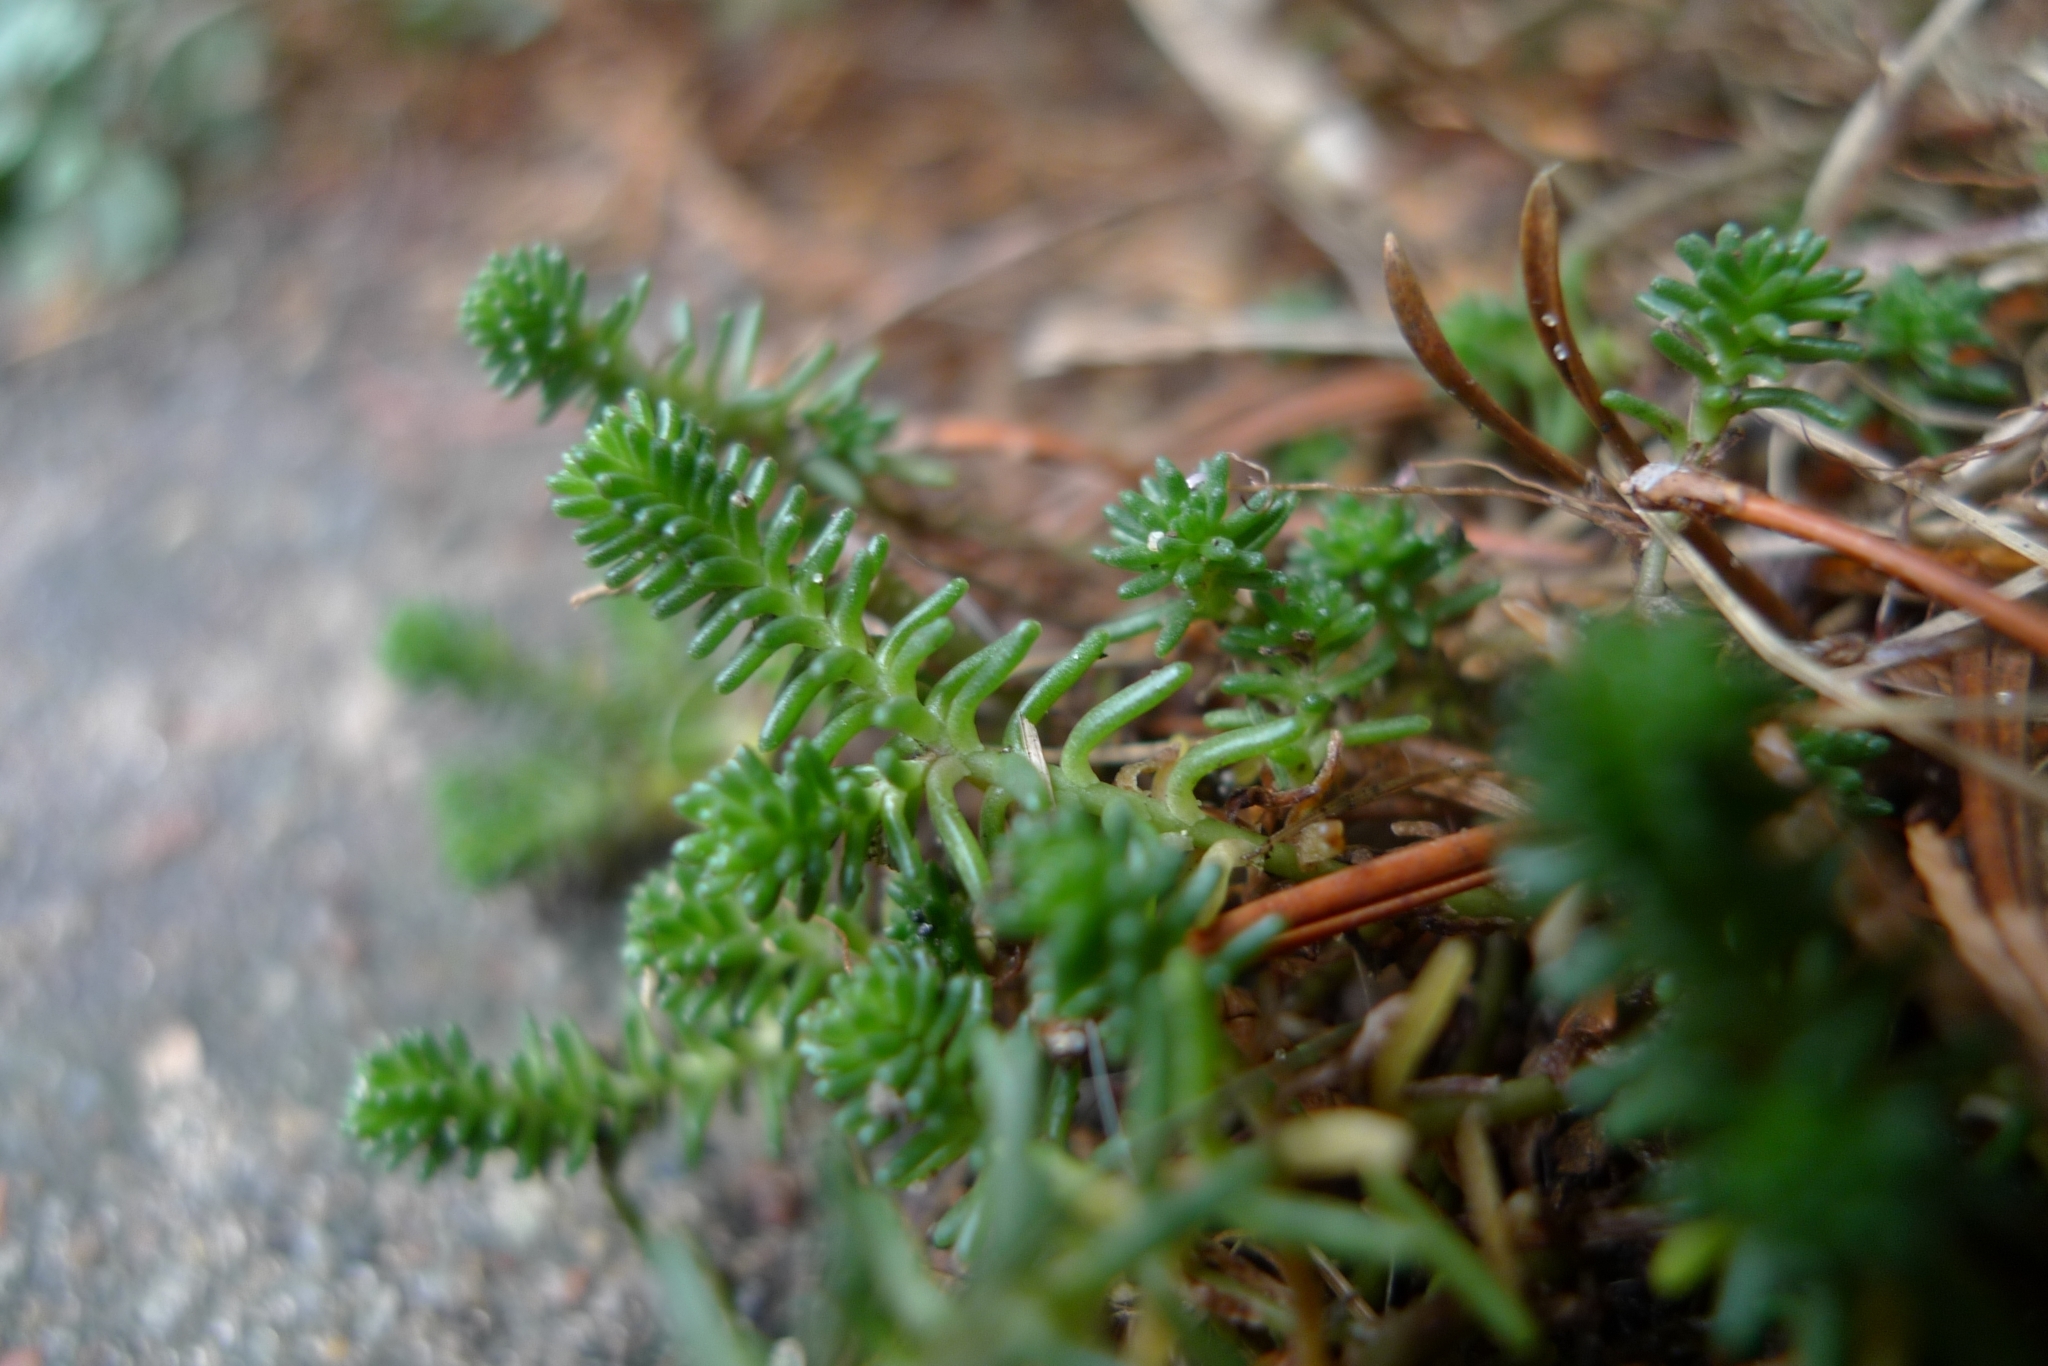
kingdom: Plantae
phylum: Tracheophyta
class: Magnoliopsida
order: Saxifragales
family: Crassulaceae
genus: Sedum
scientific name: Sedum sexangulare
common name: Tasteless stonecrop
